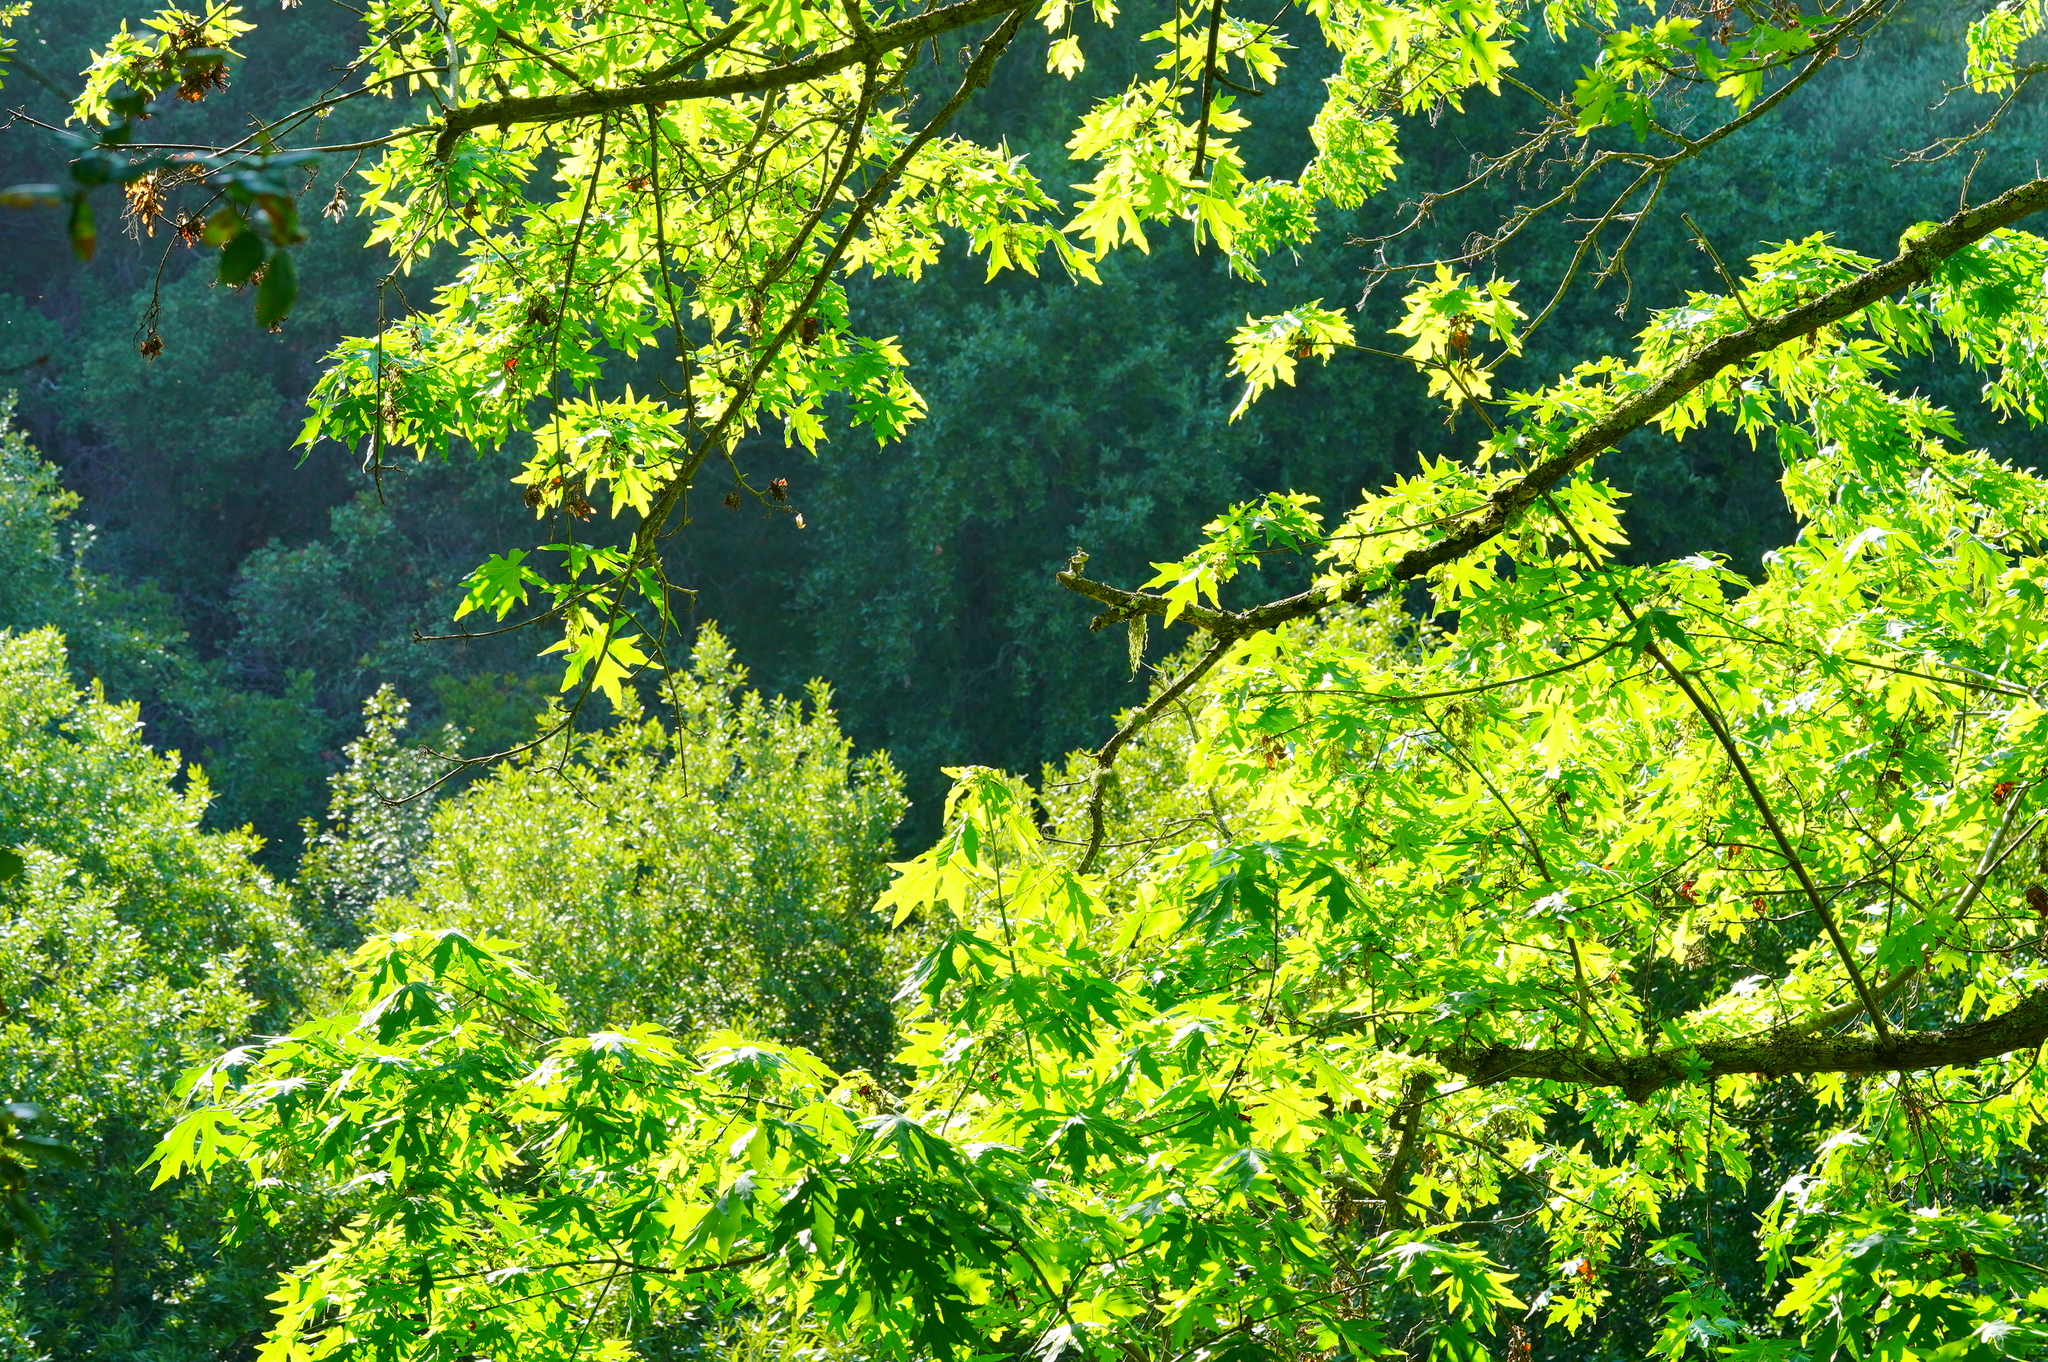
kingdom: Plantae
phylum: Tracheophyta
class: Magnoliopsida
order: Sapindales
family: Sapindaceae
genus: Acer
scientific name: Acer macrophyllum
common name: Oregon maple
